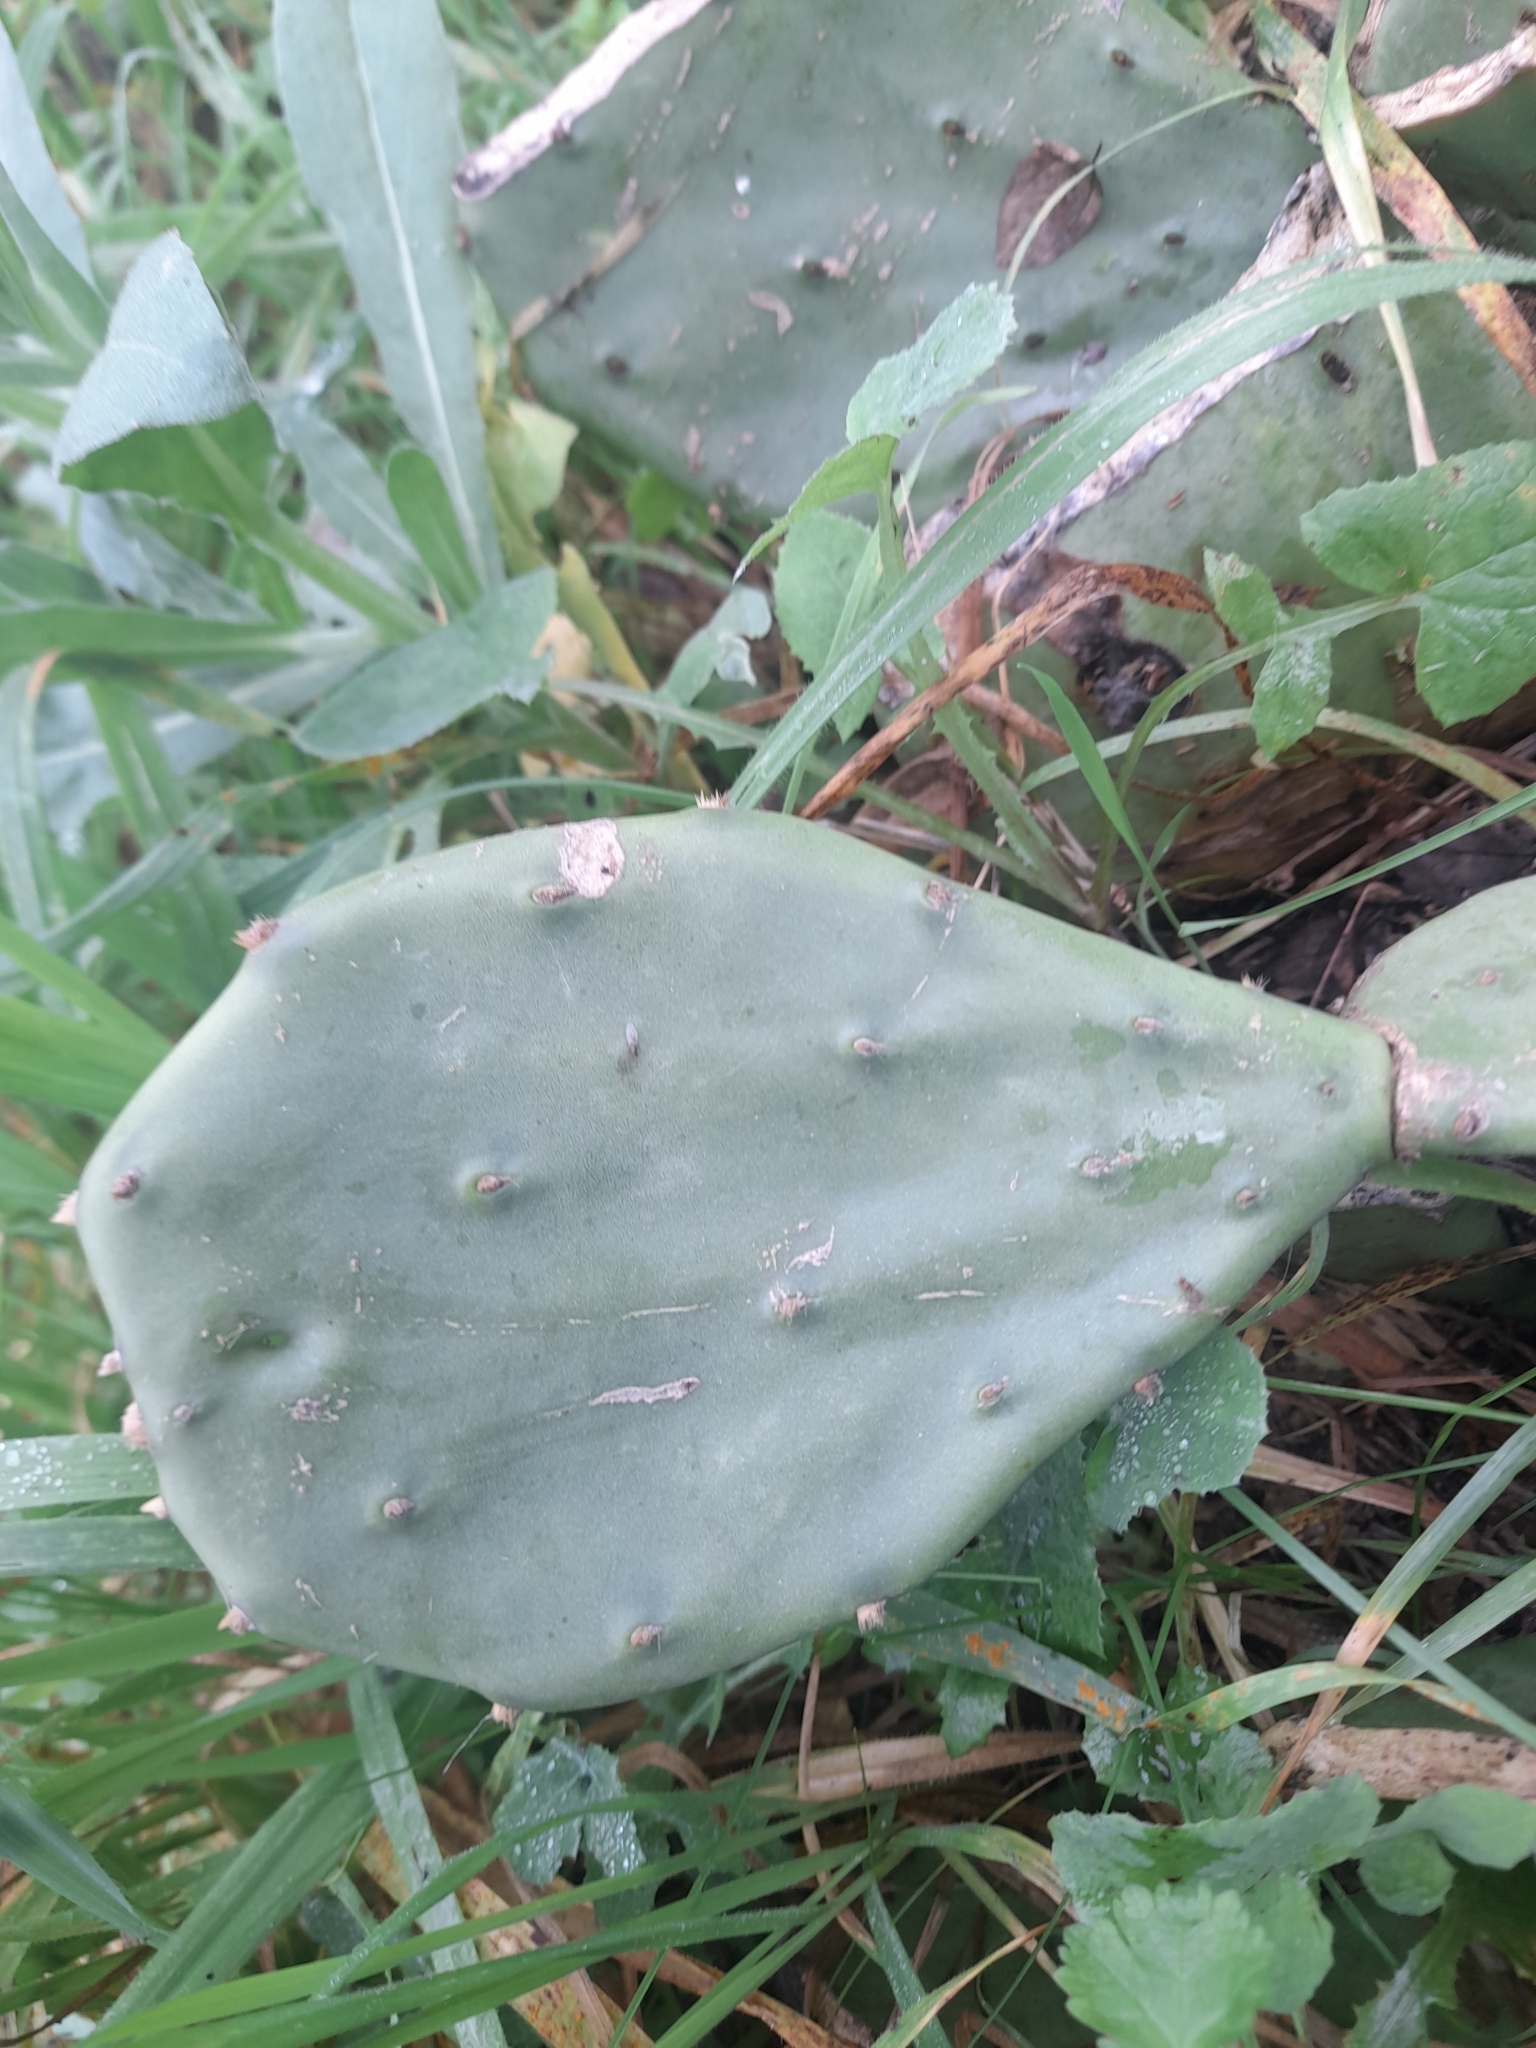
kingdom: Plantae
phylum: Tracheophyta
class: Magnoliopsida
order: Caryophyllales
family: Cactaceae
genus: Opuntia
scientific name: Opuntia anahuacensis
